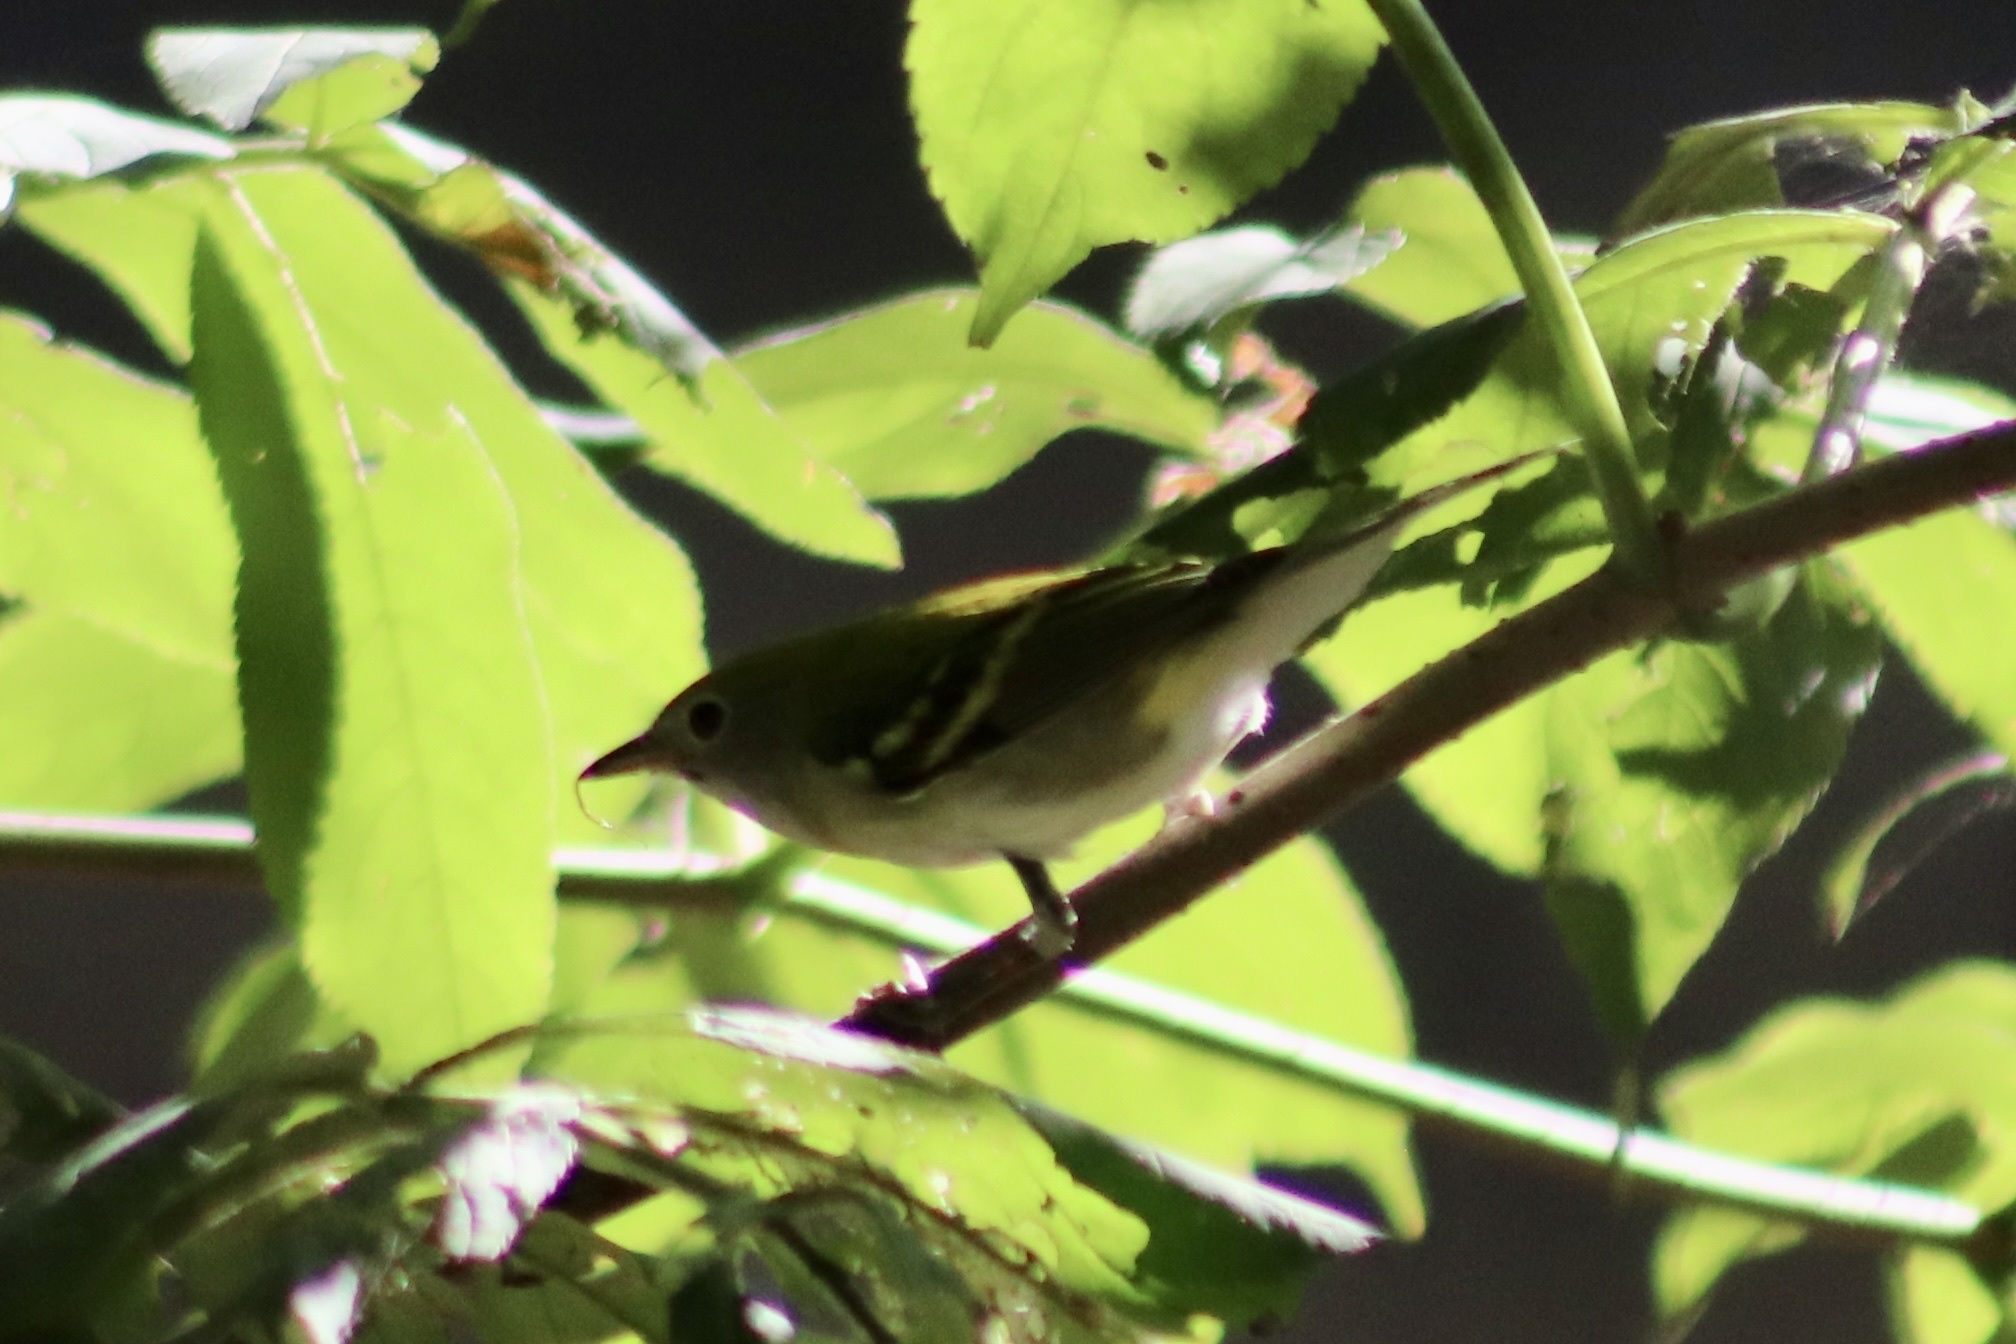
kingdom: Animalia
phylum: Chordata
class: Aves
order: Passeriformes
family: Parulidae
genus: Setophaga
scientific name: Setophaga pensylvanica
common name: Chestnut-sided warbler
